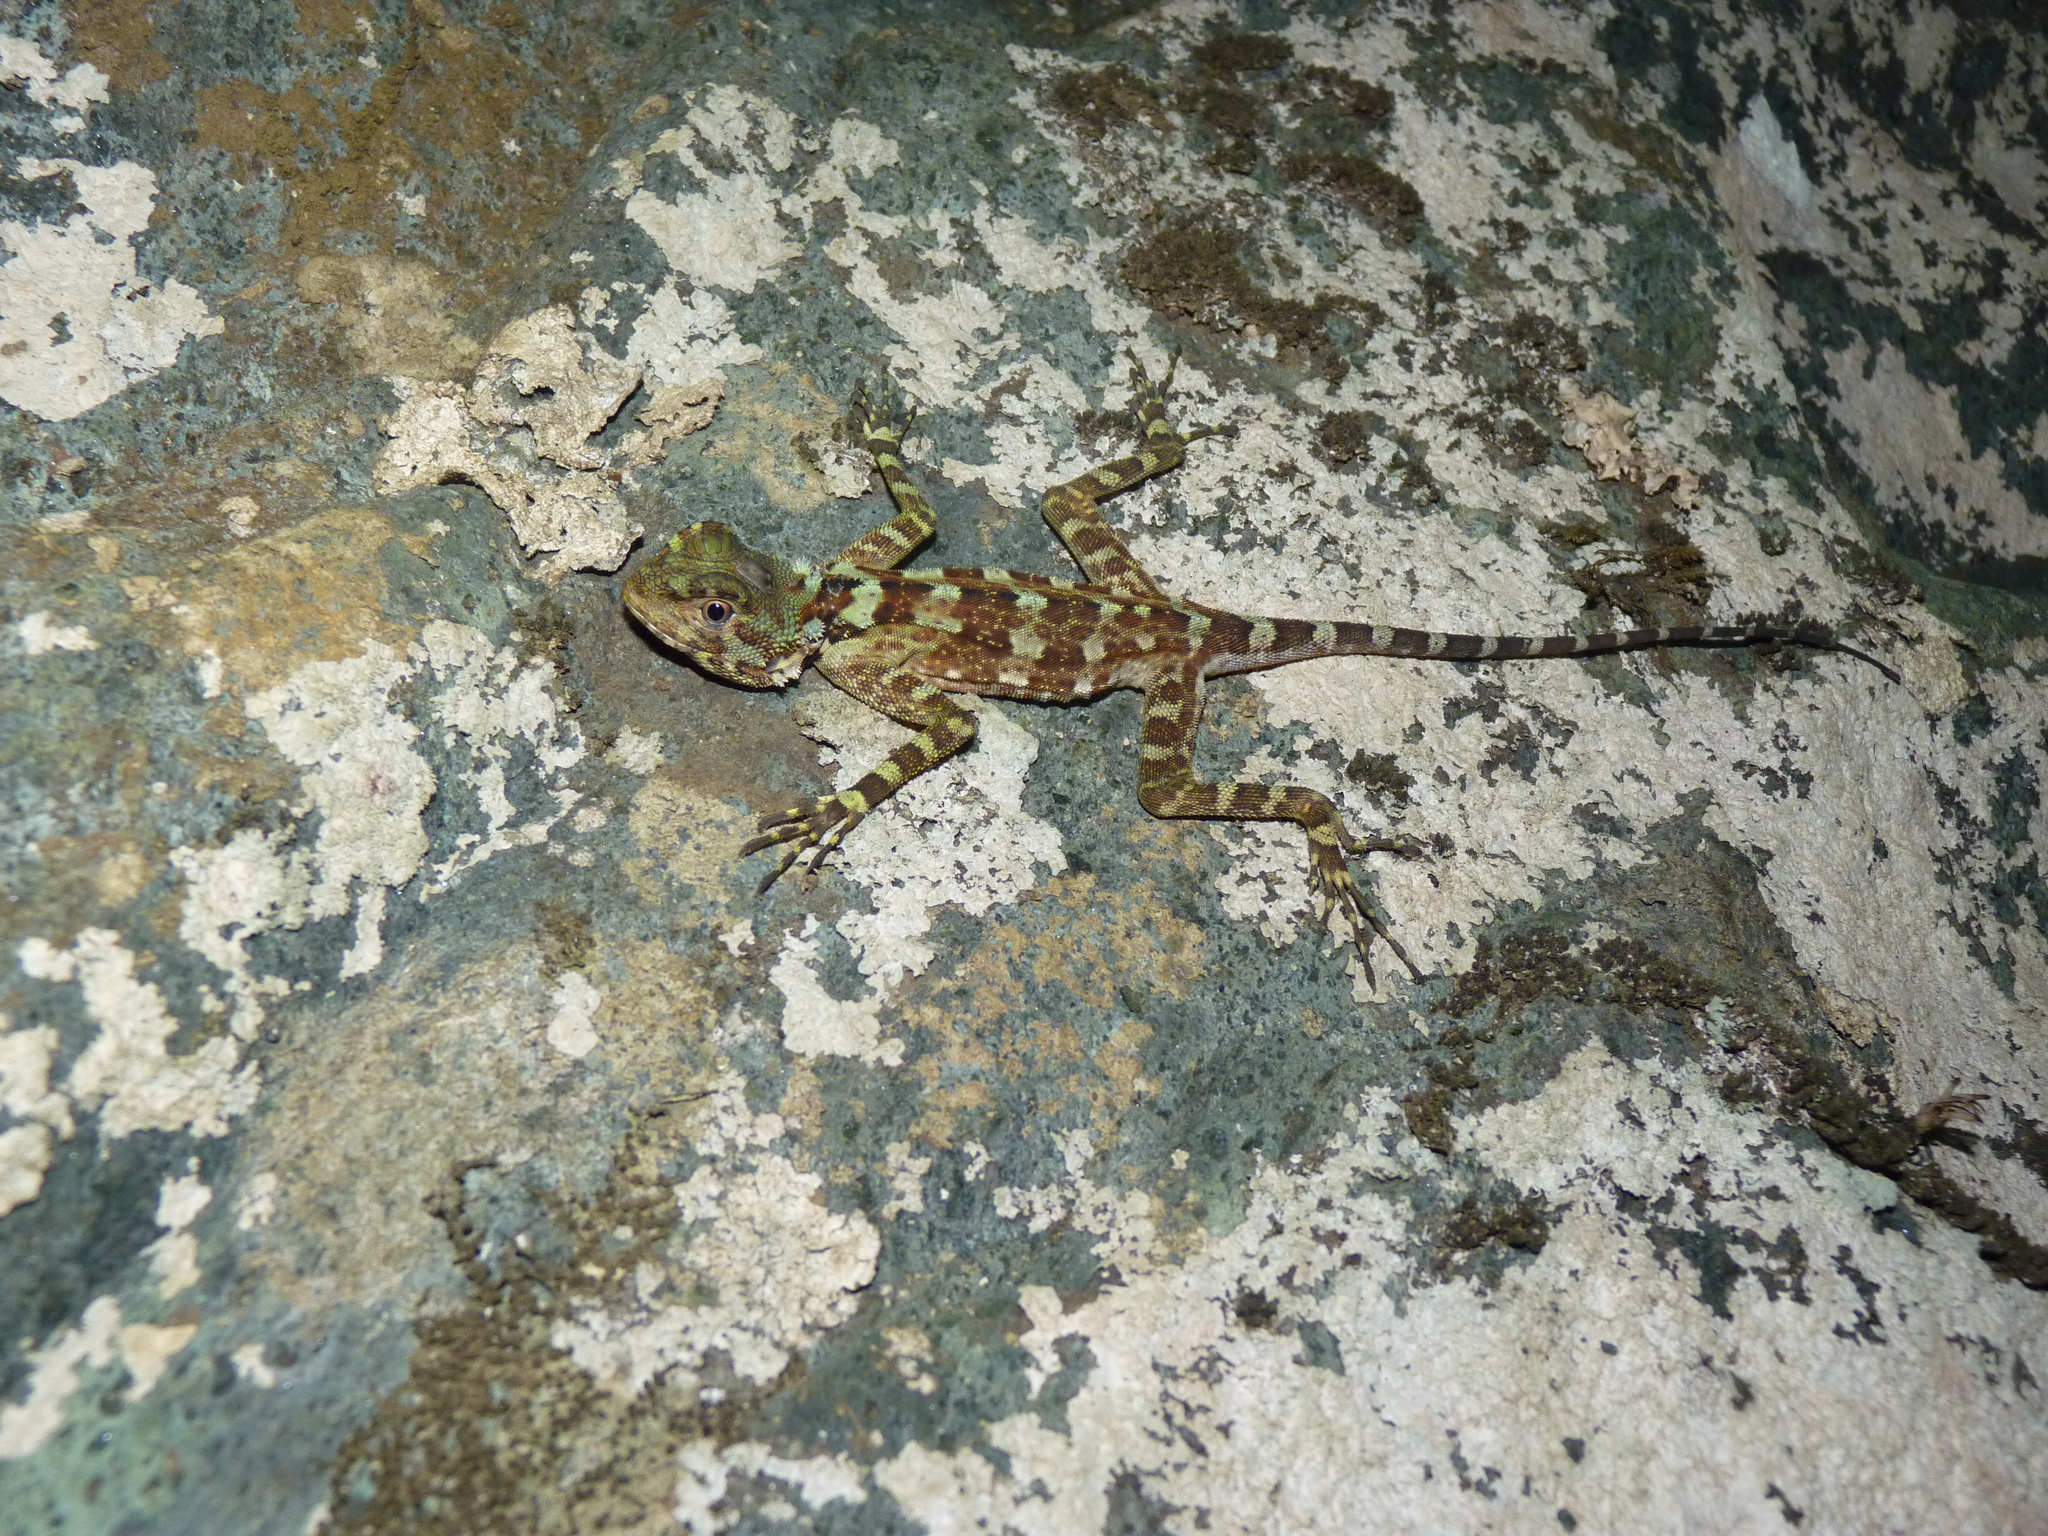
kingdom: Animalia
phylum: Chordata
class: Squamata
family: Tropiduridae
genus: Plica
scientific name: Plica plica
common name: Tree runner
